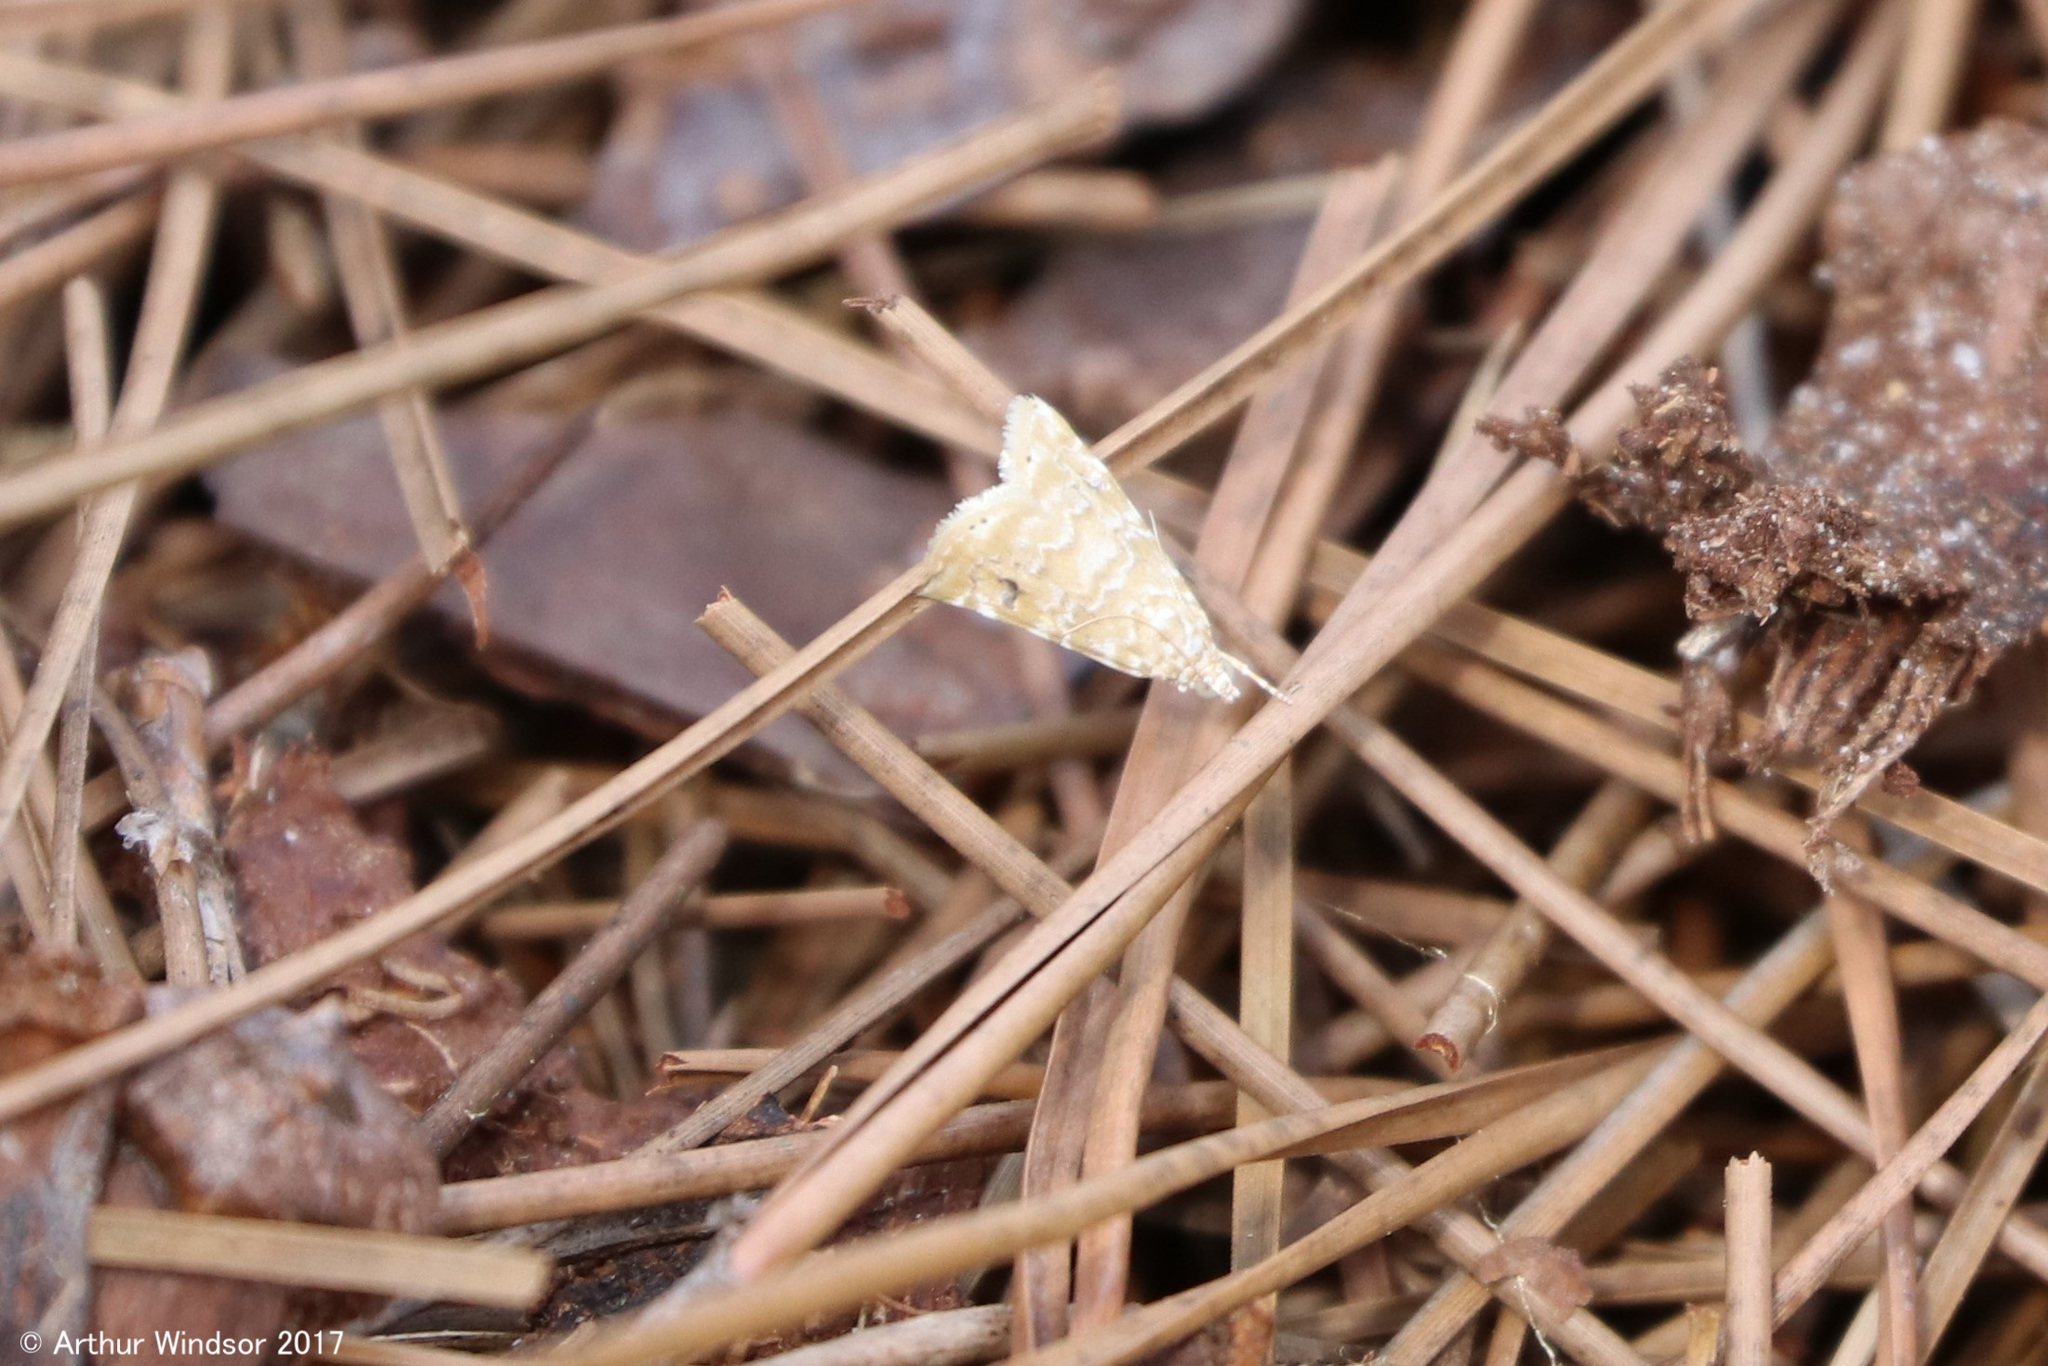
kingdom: Animalia
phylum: Arthropoda
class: Insecta
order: Lepidoptera
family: Crambidae
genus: Hellula
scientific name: Hellula phidilealis
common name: Crambid moth
